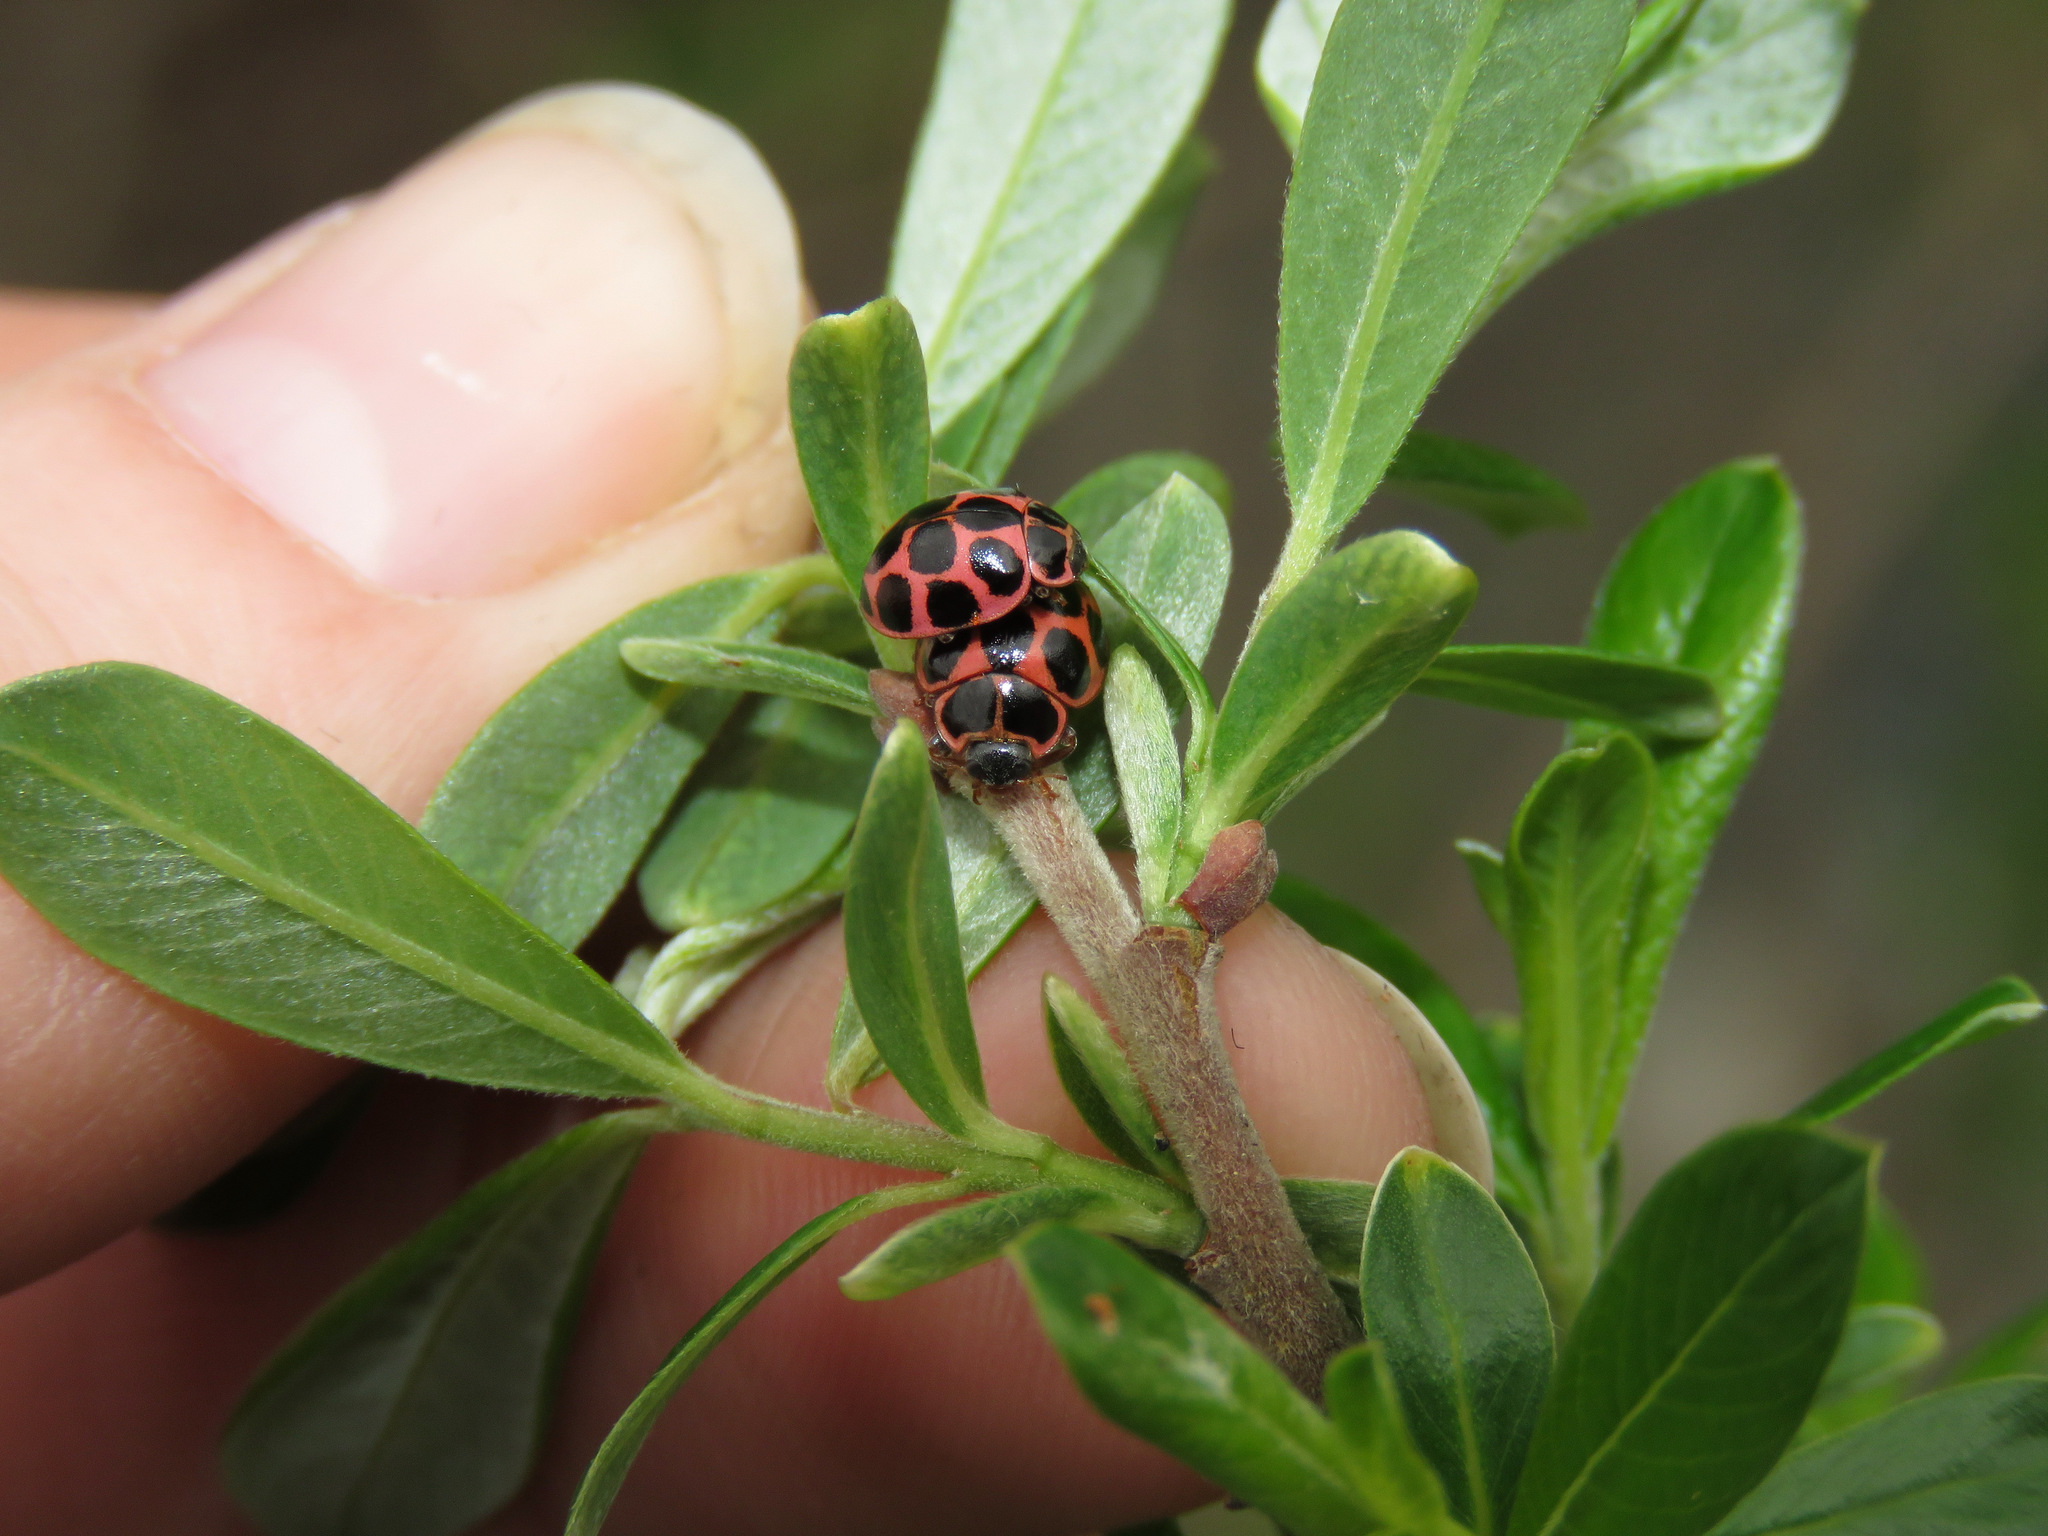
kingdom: Animalia
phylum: Arthropoda
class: Insecta
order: Coleoptera
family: Coccinellidae
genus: Calvia
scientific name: Calvia quatuordecimguttata
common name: Cream-spot ladybird
